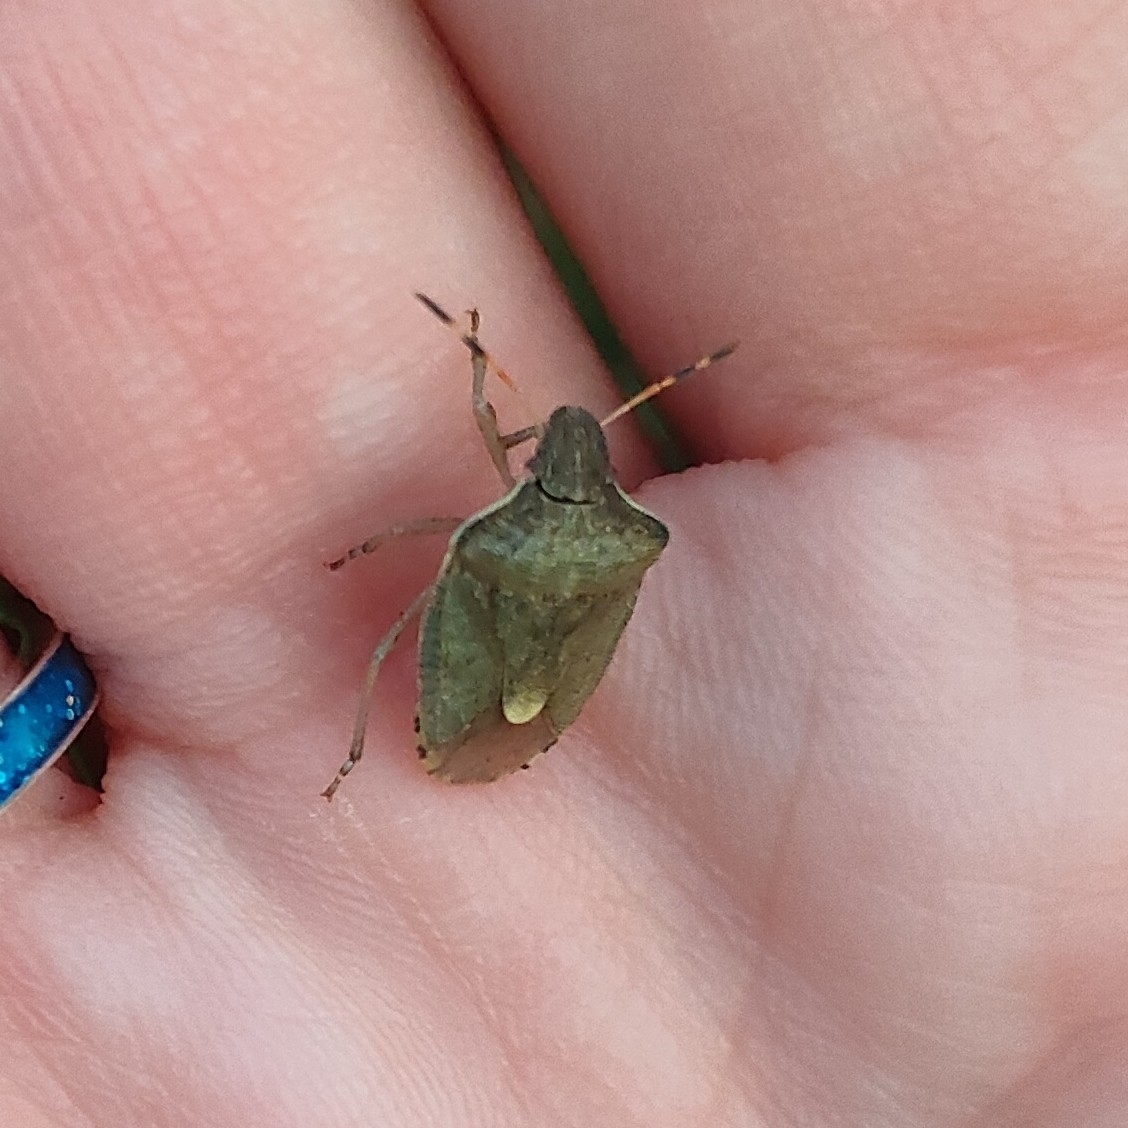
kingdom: Animalia
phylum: Arthropoda
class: Insecta
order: Hemiptera
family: Pentatomidae
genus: Holcostethus
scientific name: Holcostethus strictus
